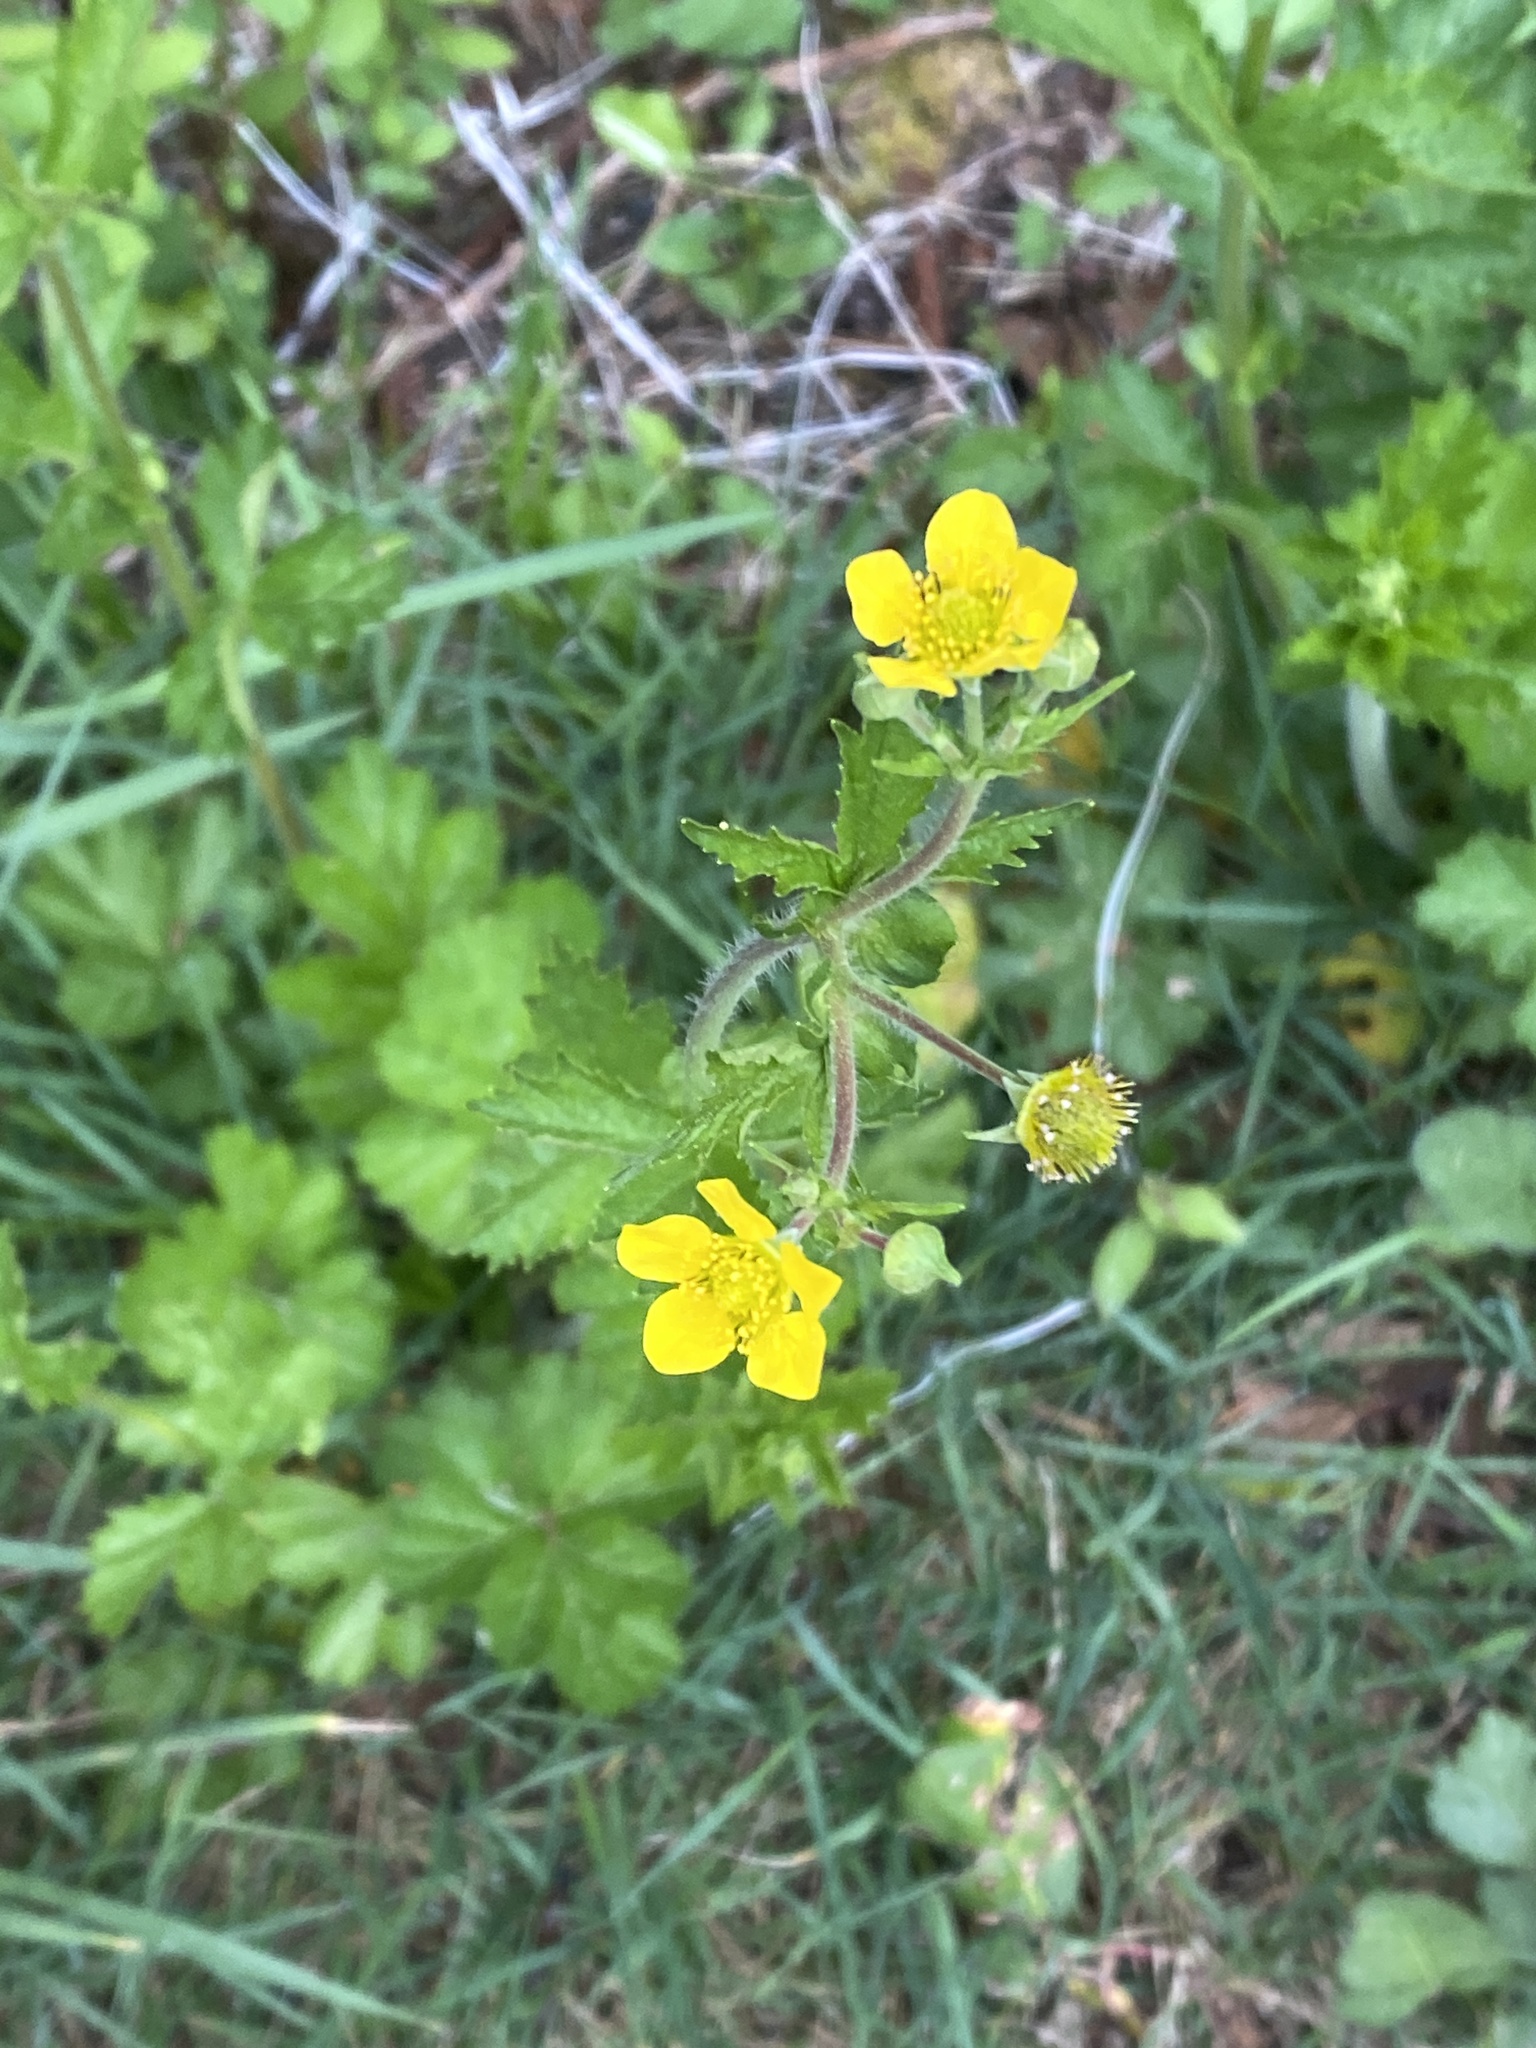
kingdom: Plantae
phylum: Tracheophyta
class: Magnoliopsida
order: Rosales
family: Rosaceae
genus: Geum
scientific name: Geum macrophyllum
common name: Large-leaved avens
